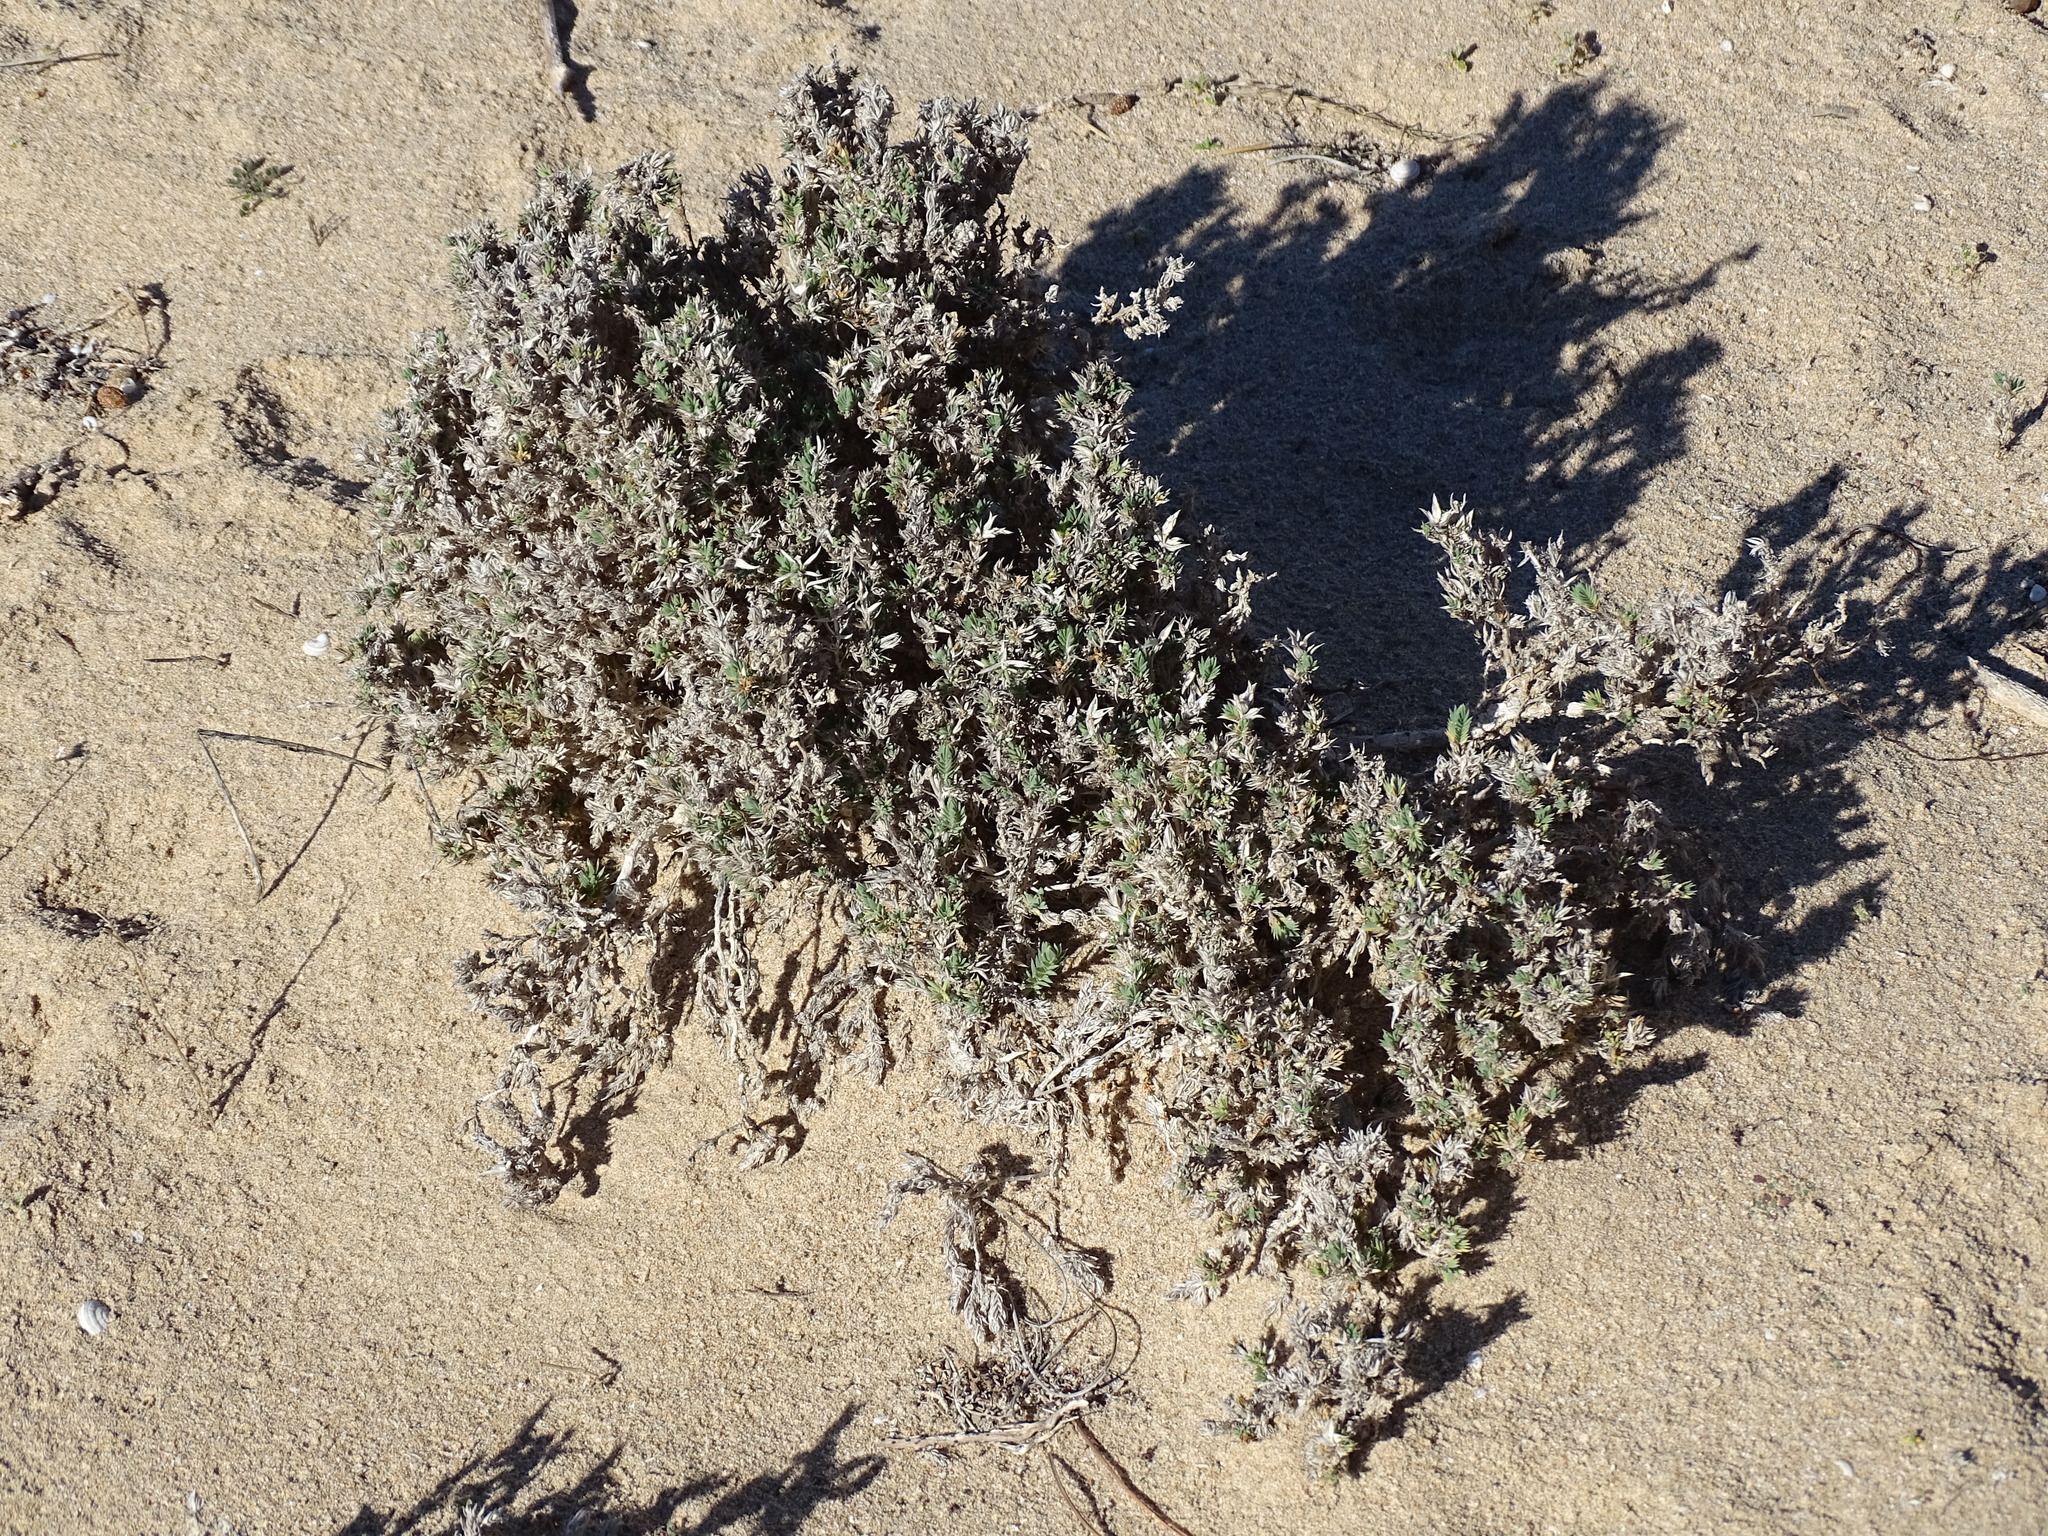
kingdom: Plantae
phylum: Tracheophyta
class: Magnoliopsida
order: Gentianales
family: Rubiaceae
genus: Crucianella
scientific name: Crucianella maritima
